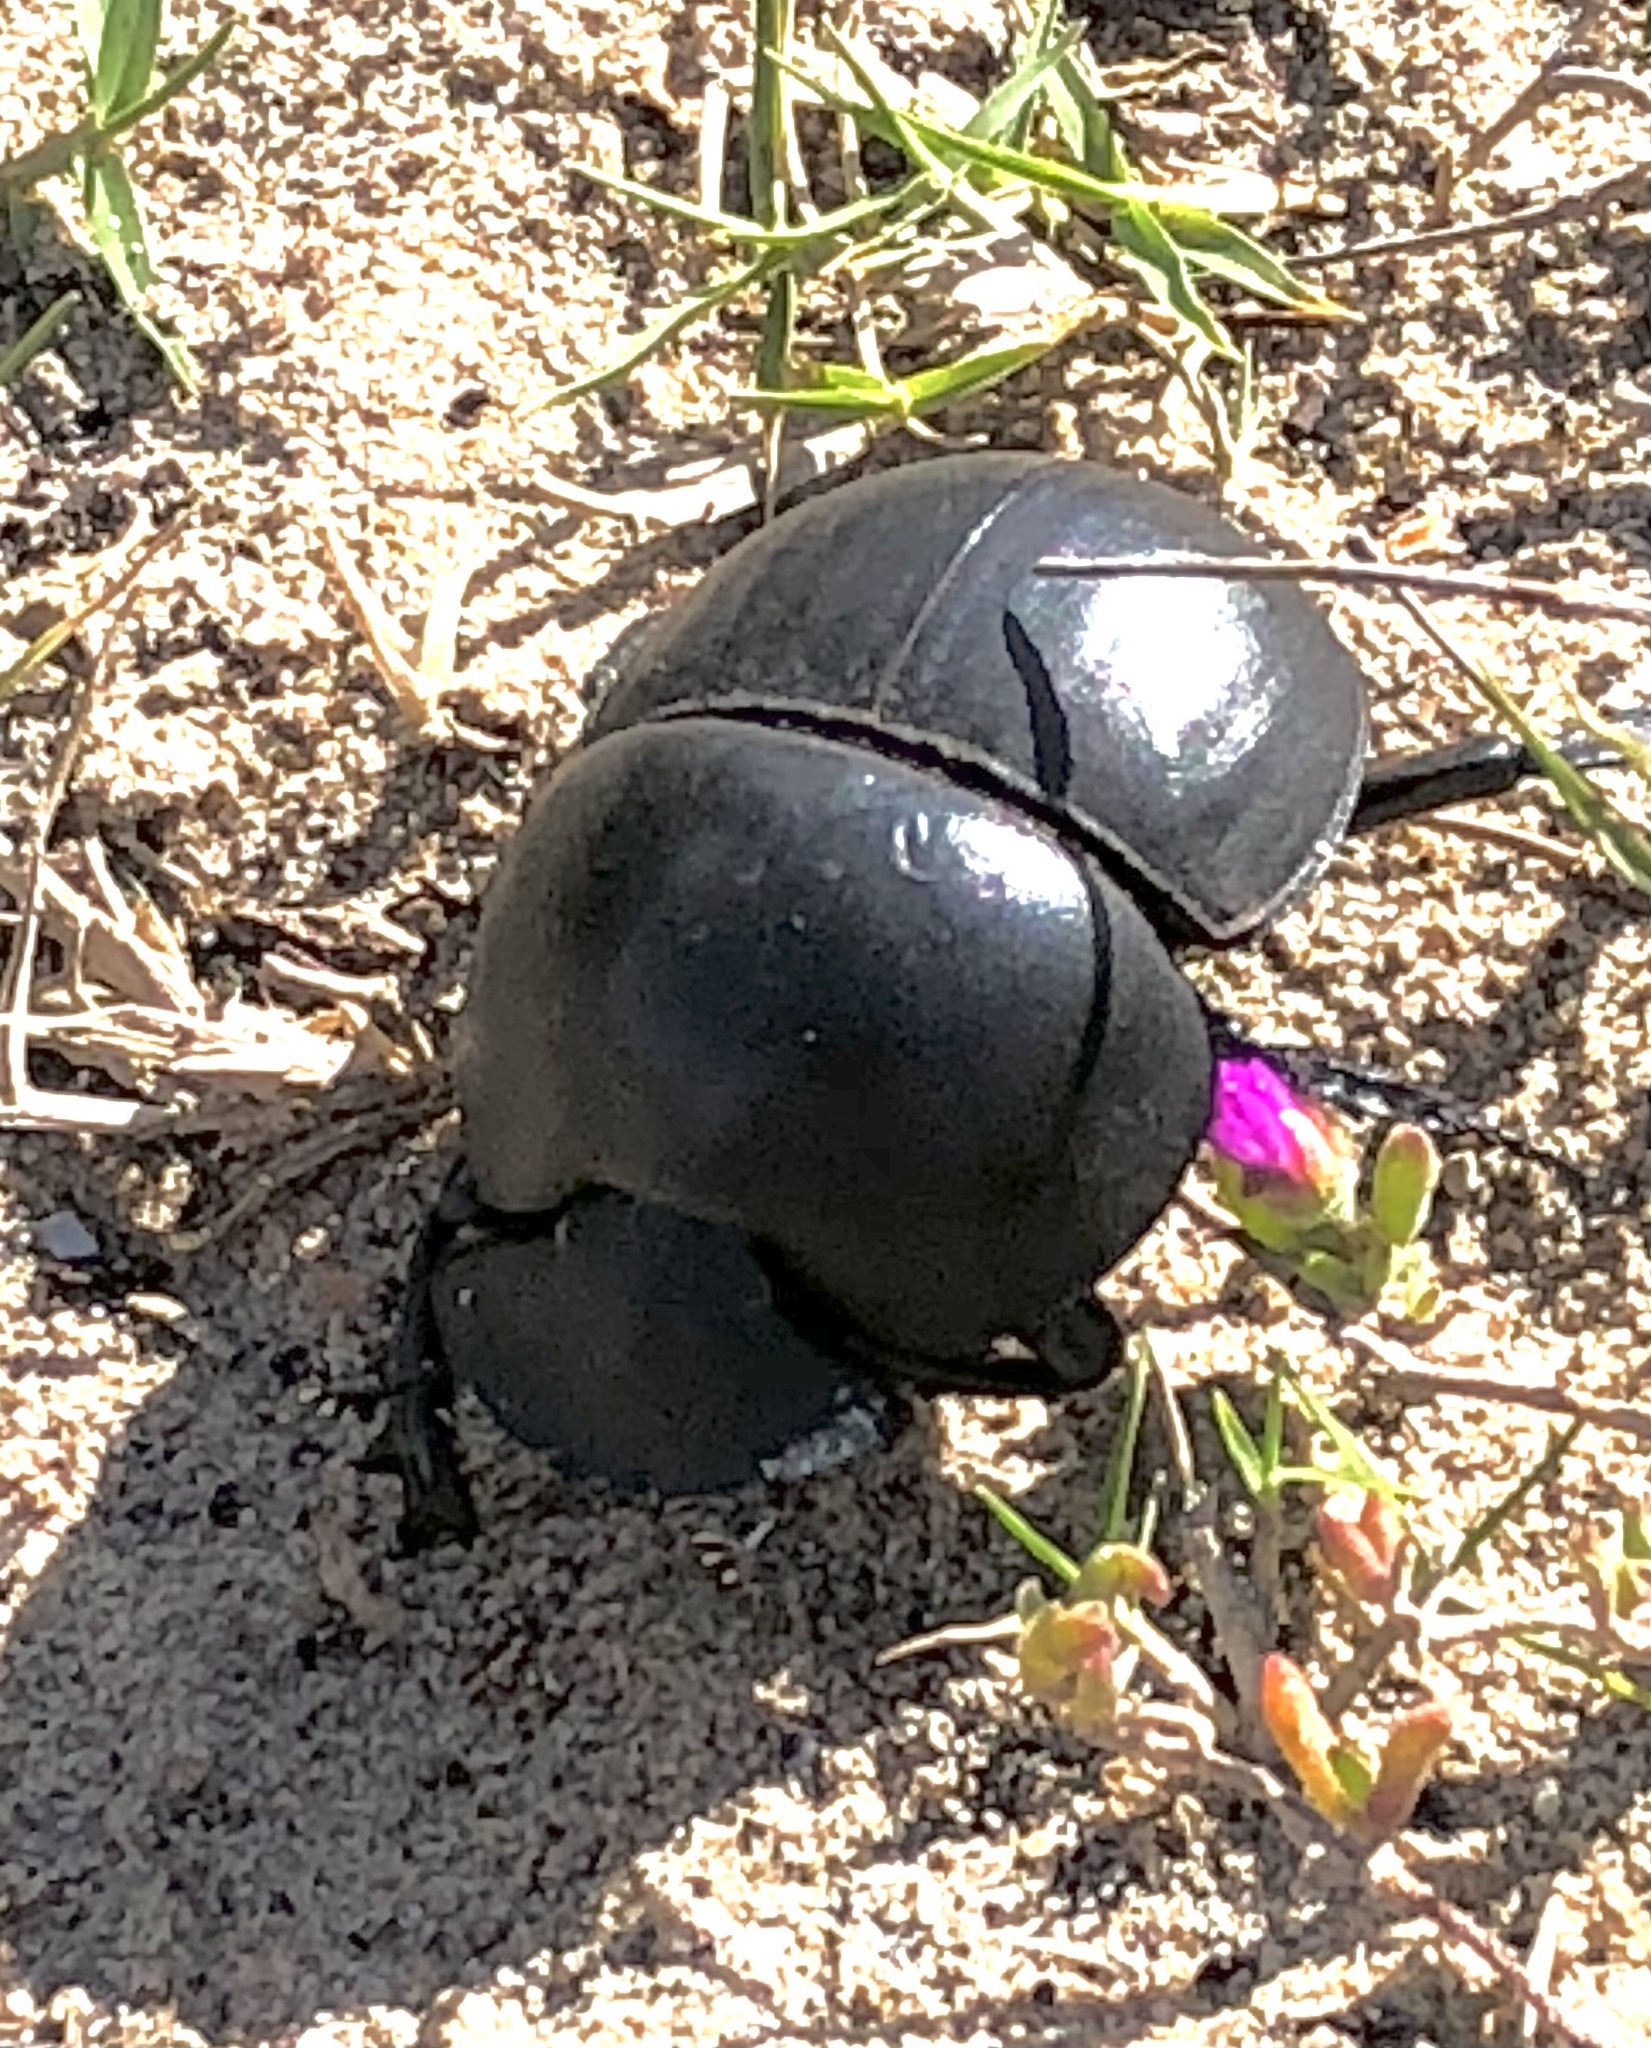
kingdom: Animalia
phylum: Arthropoda
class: Insecta
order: Coleoptera
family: Scarabaeidae
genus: Circellium
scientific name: Circellium bacchus
